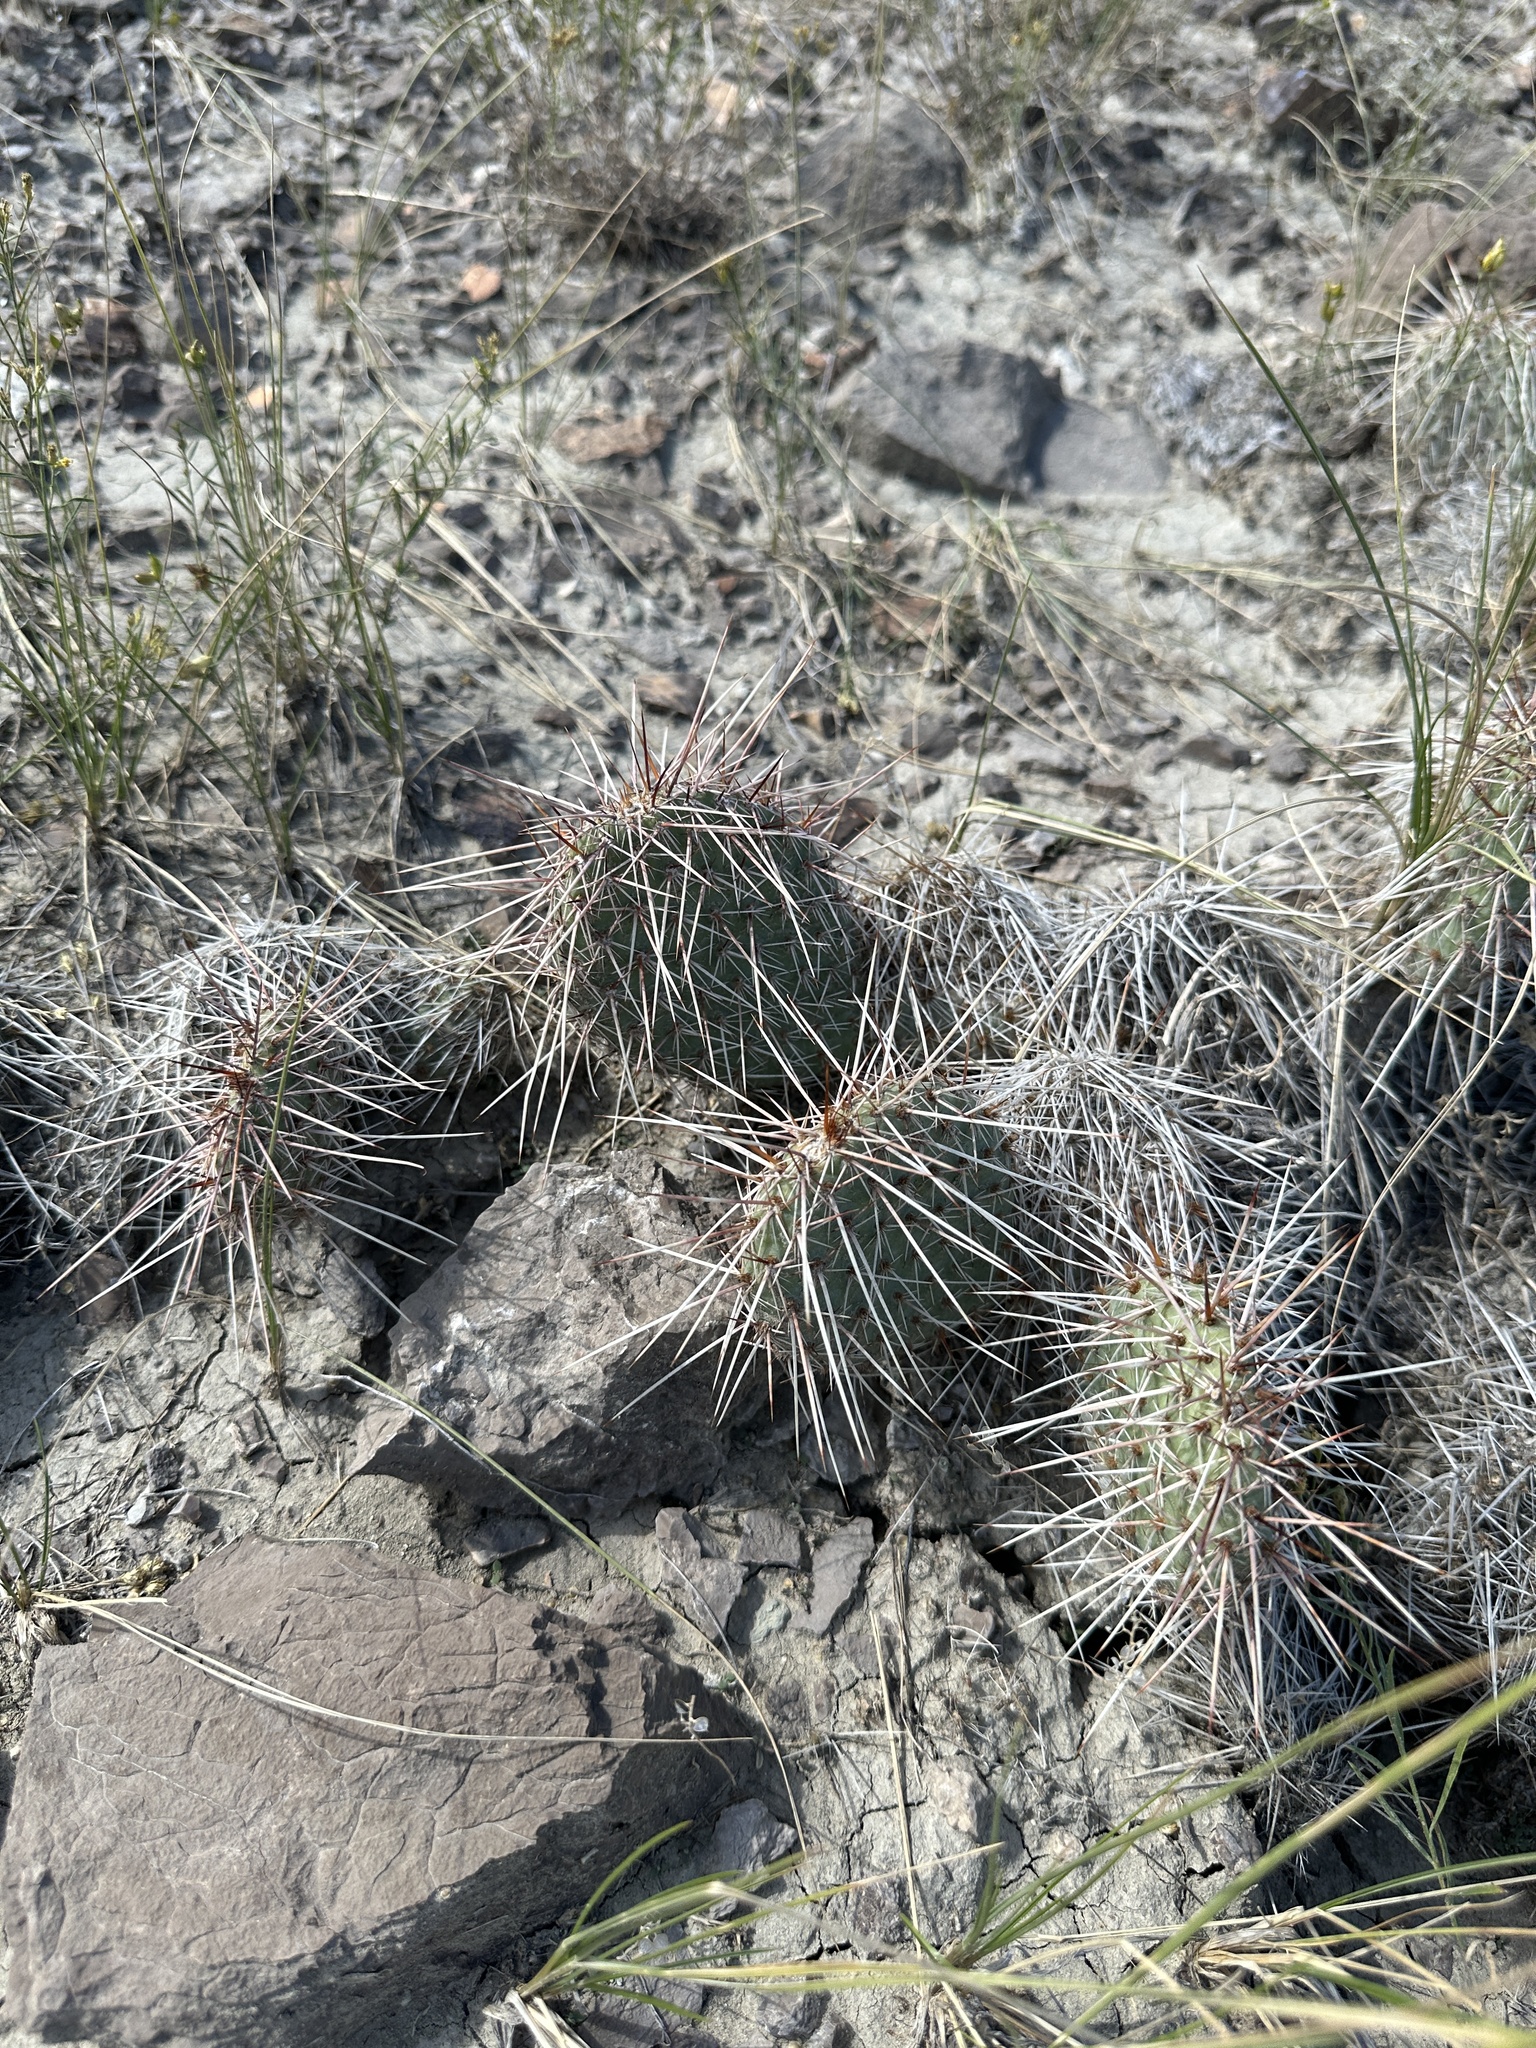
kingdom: Plantae
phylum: Tracheophyta
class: Magnoliopsida
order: Caryophyllales
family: Cactaceae
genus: Opuntia
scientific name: Opuntia polyacantha
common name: Plains prickly-pear
